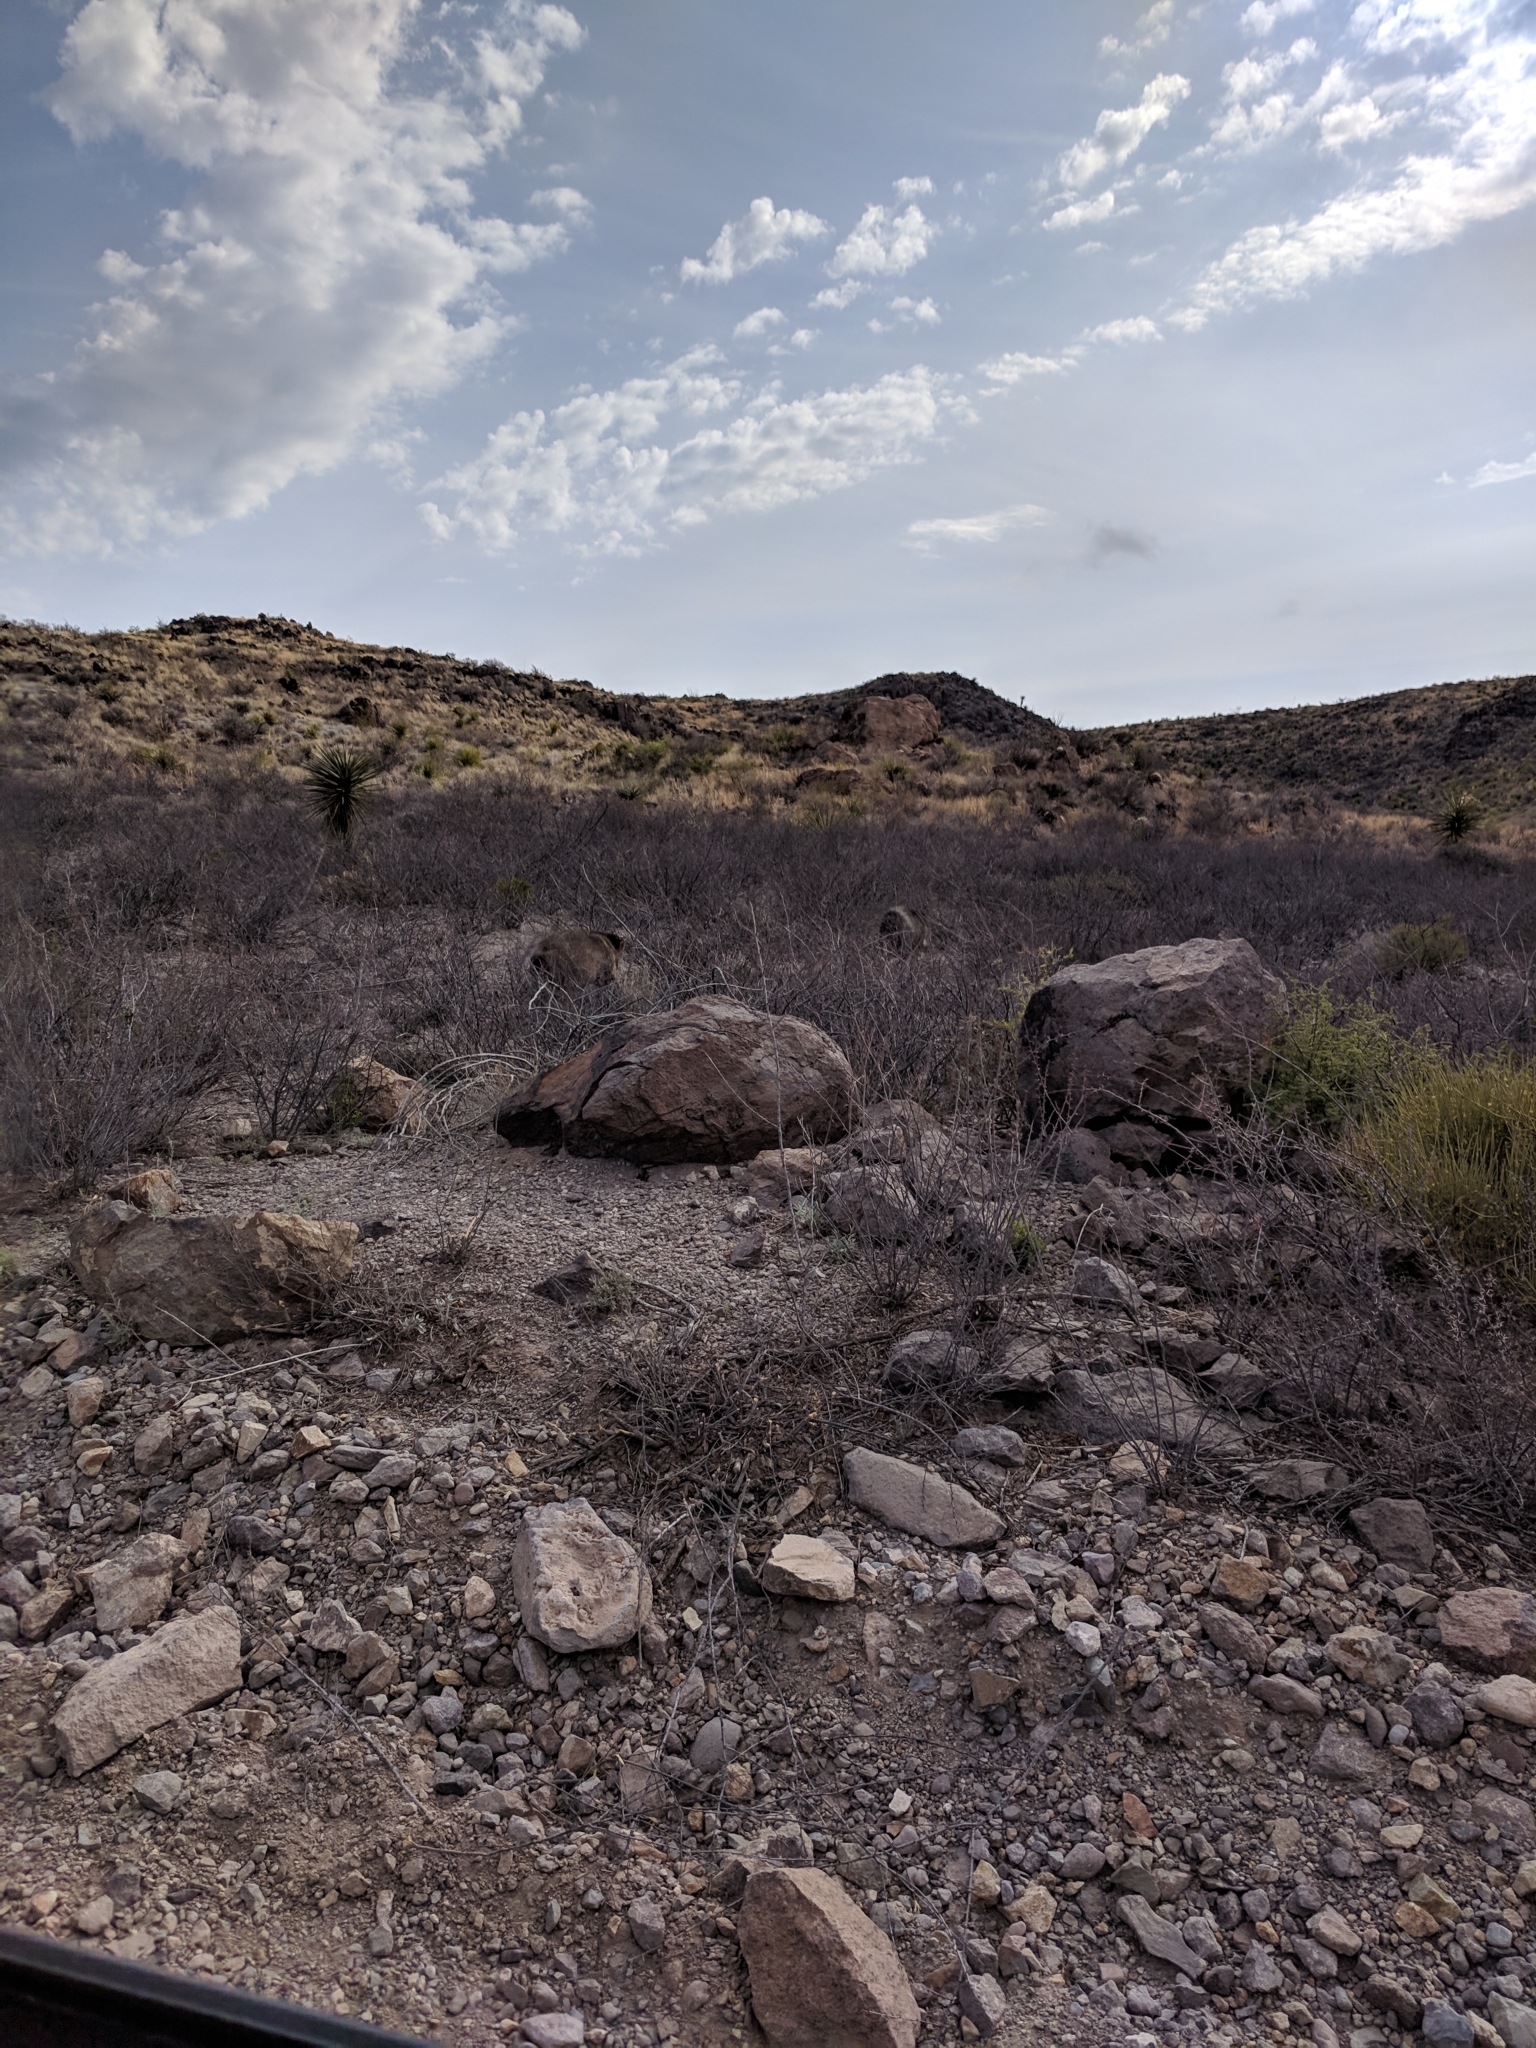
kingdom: Animalia
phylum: Chordata
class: Mammalia
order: Artiodactyla
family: Tayassuidae
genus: Pecari
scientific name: Pecari tajacu
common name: Collared peccary
